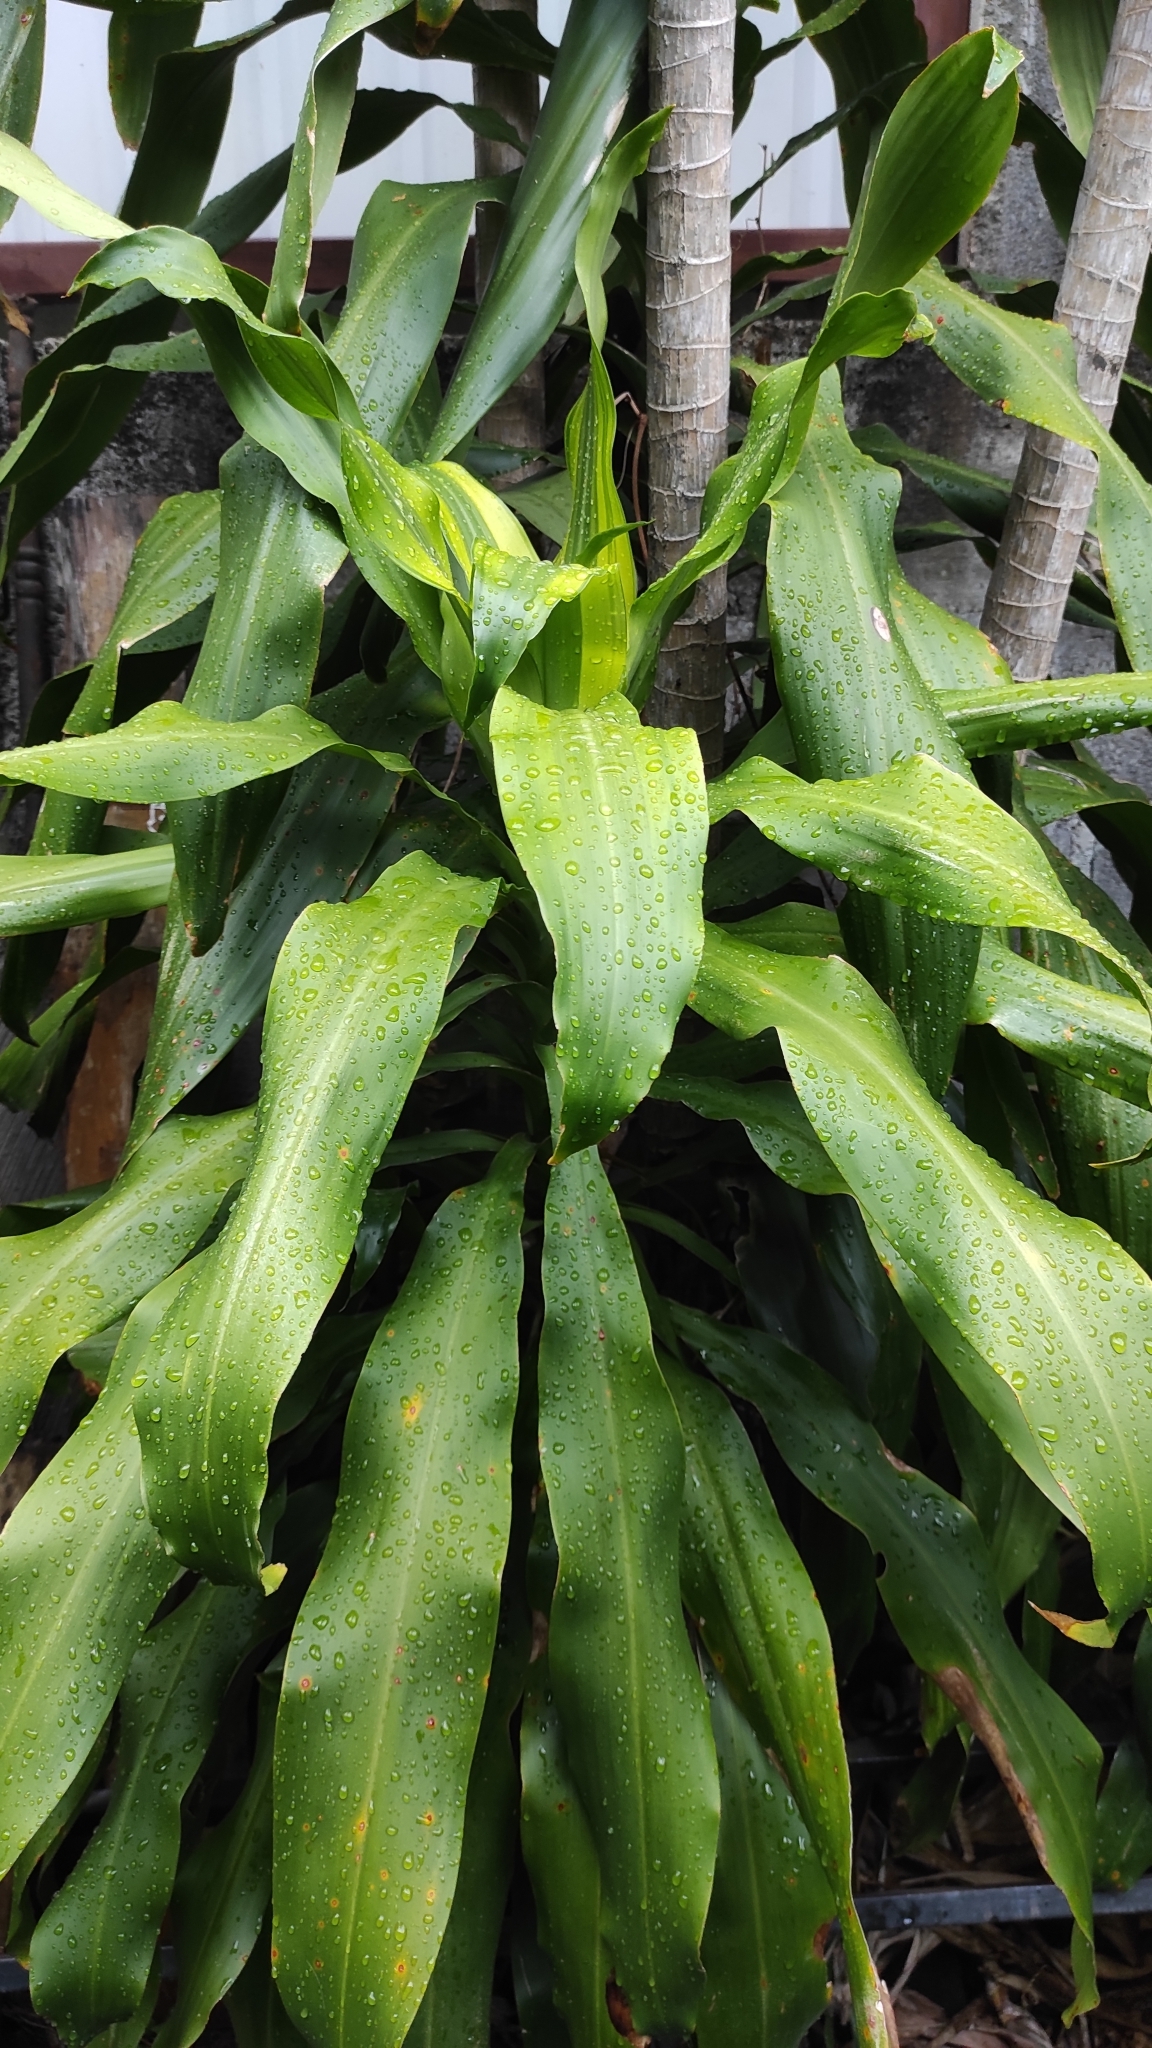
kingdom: Plantae
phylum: Tracheophyta
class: Liliopsida
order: Asparagales
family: Asparagaceae
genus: Dracaena
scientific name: Dracaena fragrans
